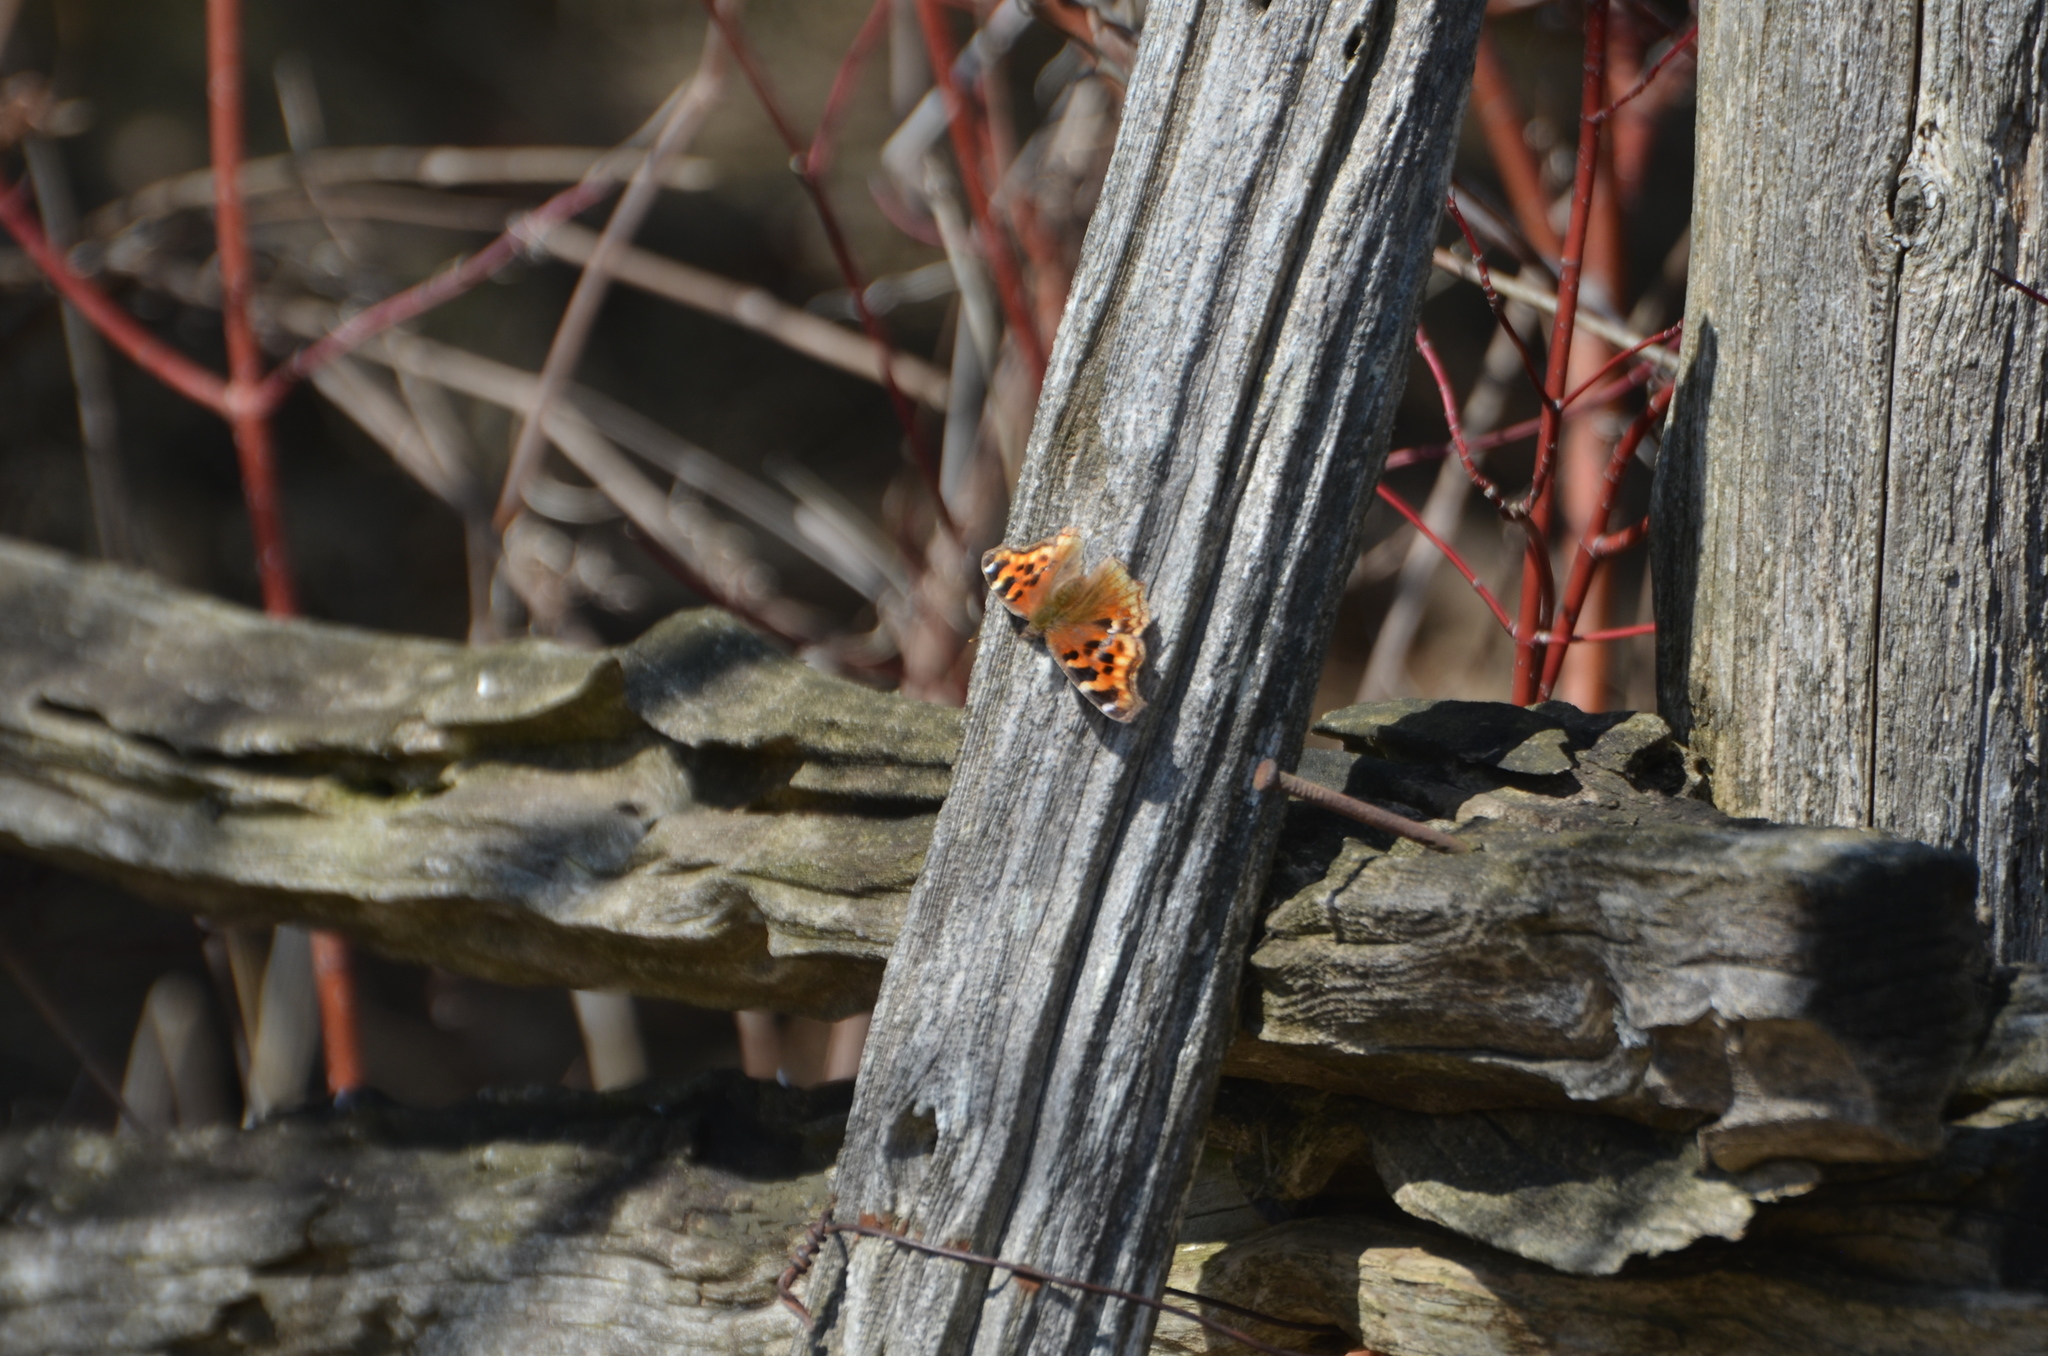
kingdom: Animalia
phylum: Arthropoda
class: Insecta
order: Lepidoptera
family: Nymphalidae
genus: Polygonia
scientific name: Polygonia vaualbum
